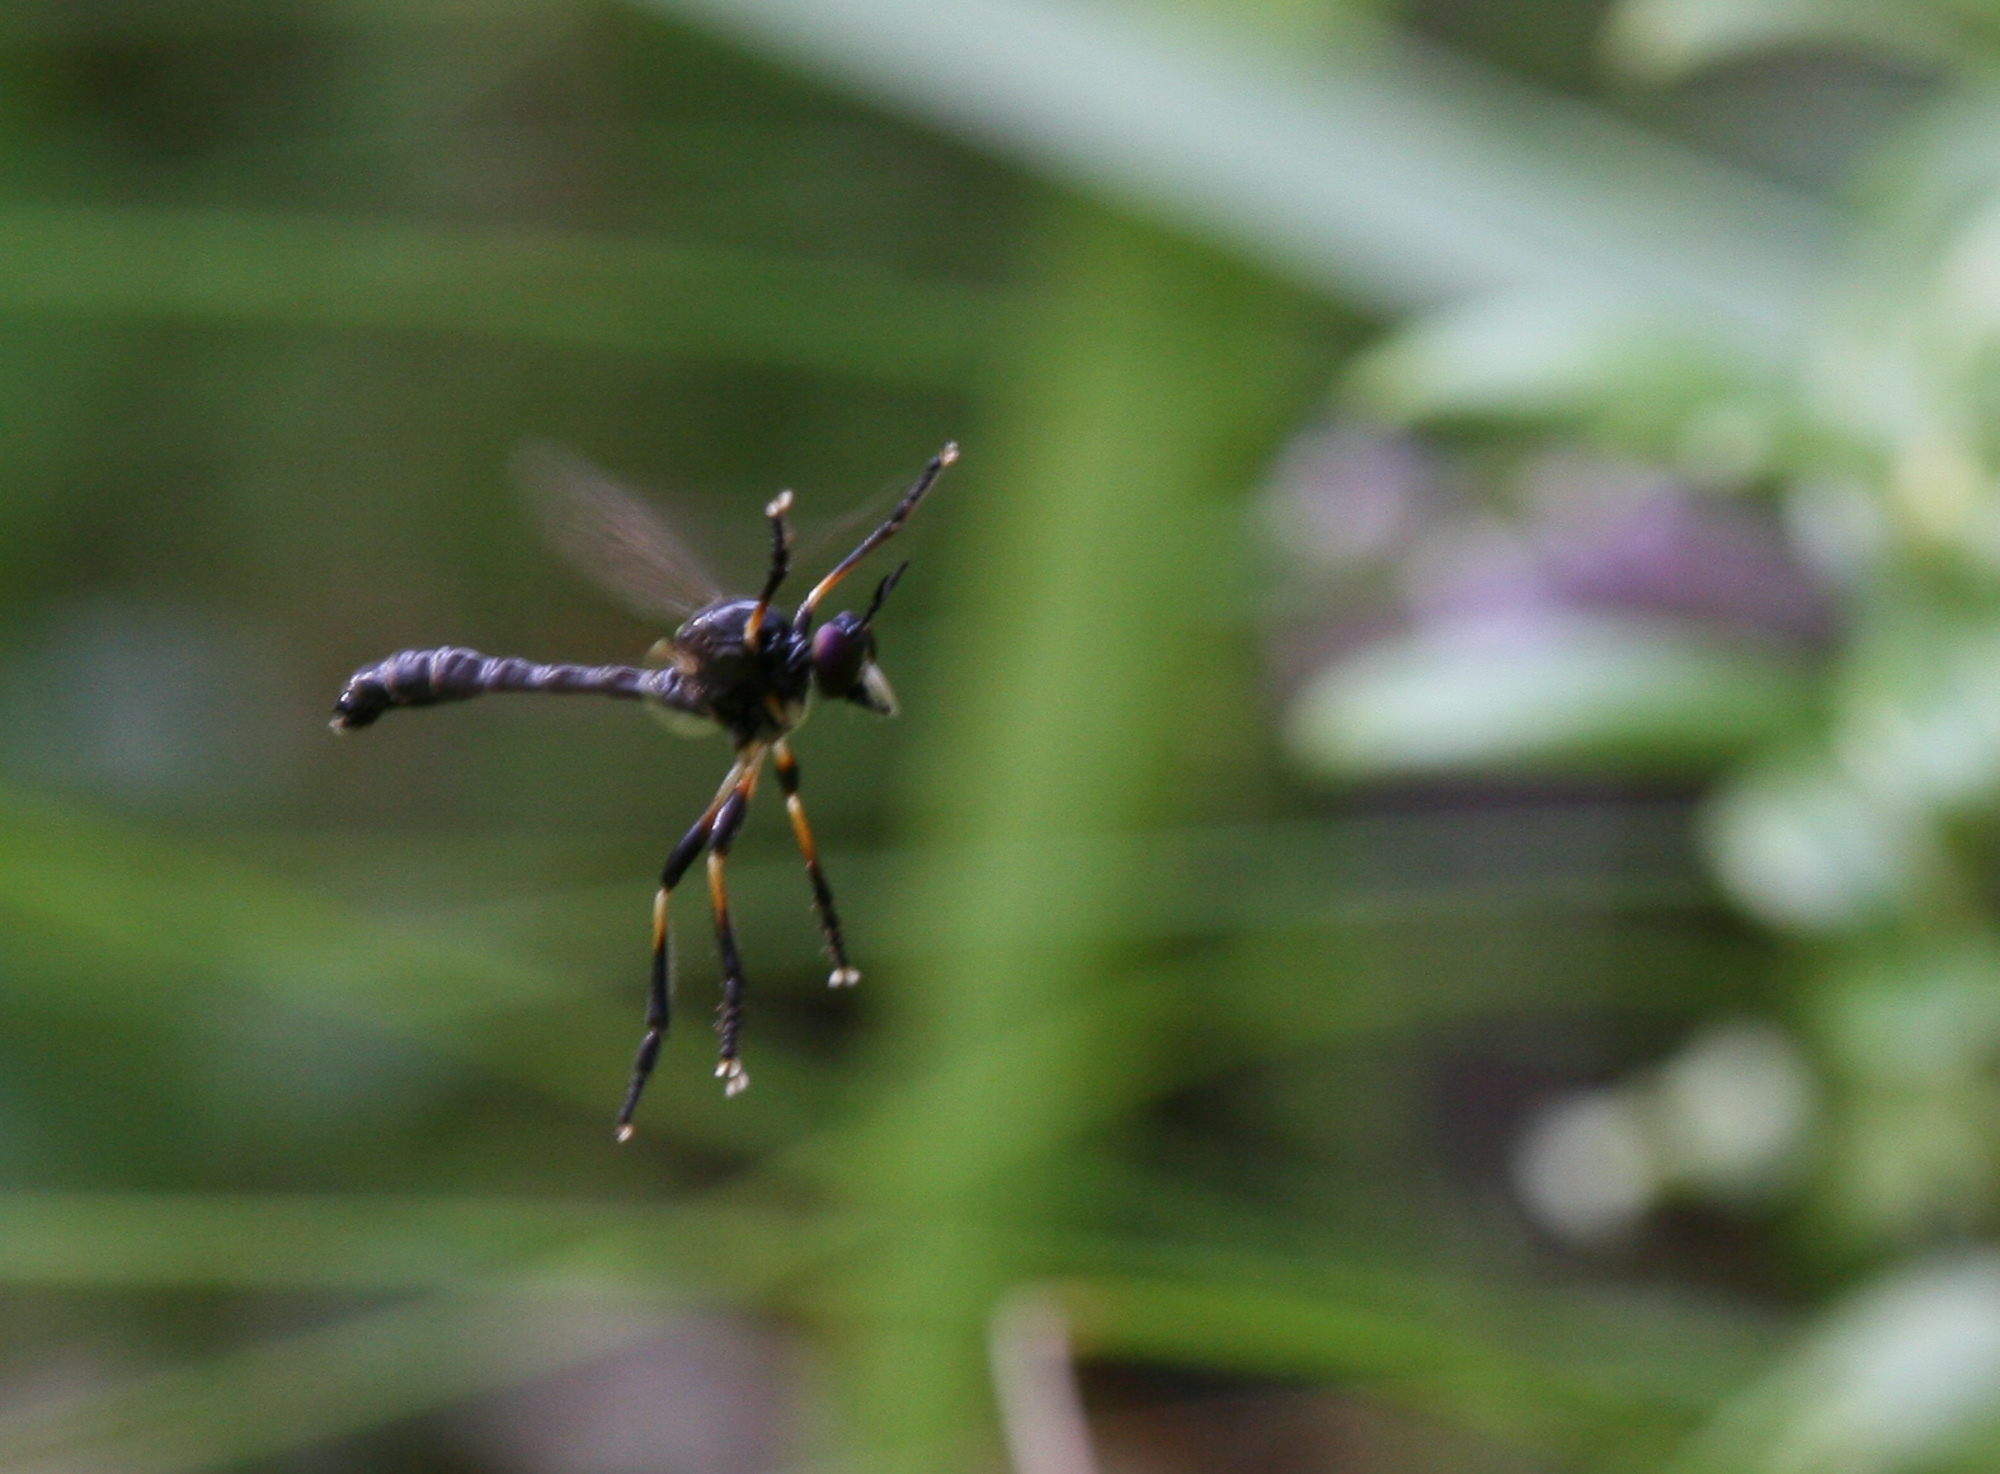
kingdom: Animalia
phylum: Arthropoda
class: Insecta
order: Diptera
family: Asilidae
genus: Dioctria
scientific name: Dioctria cothurnata
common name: Scarce red-legged robberfly
